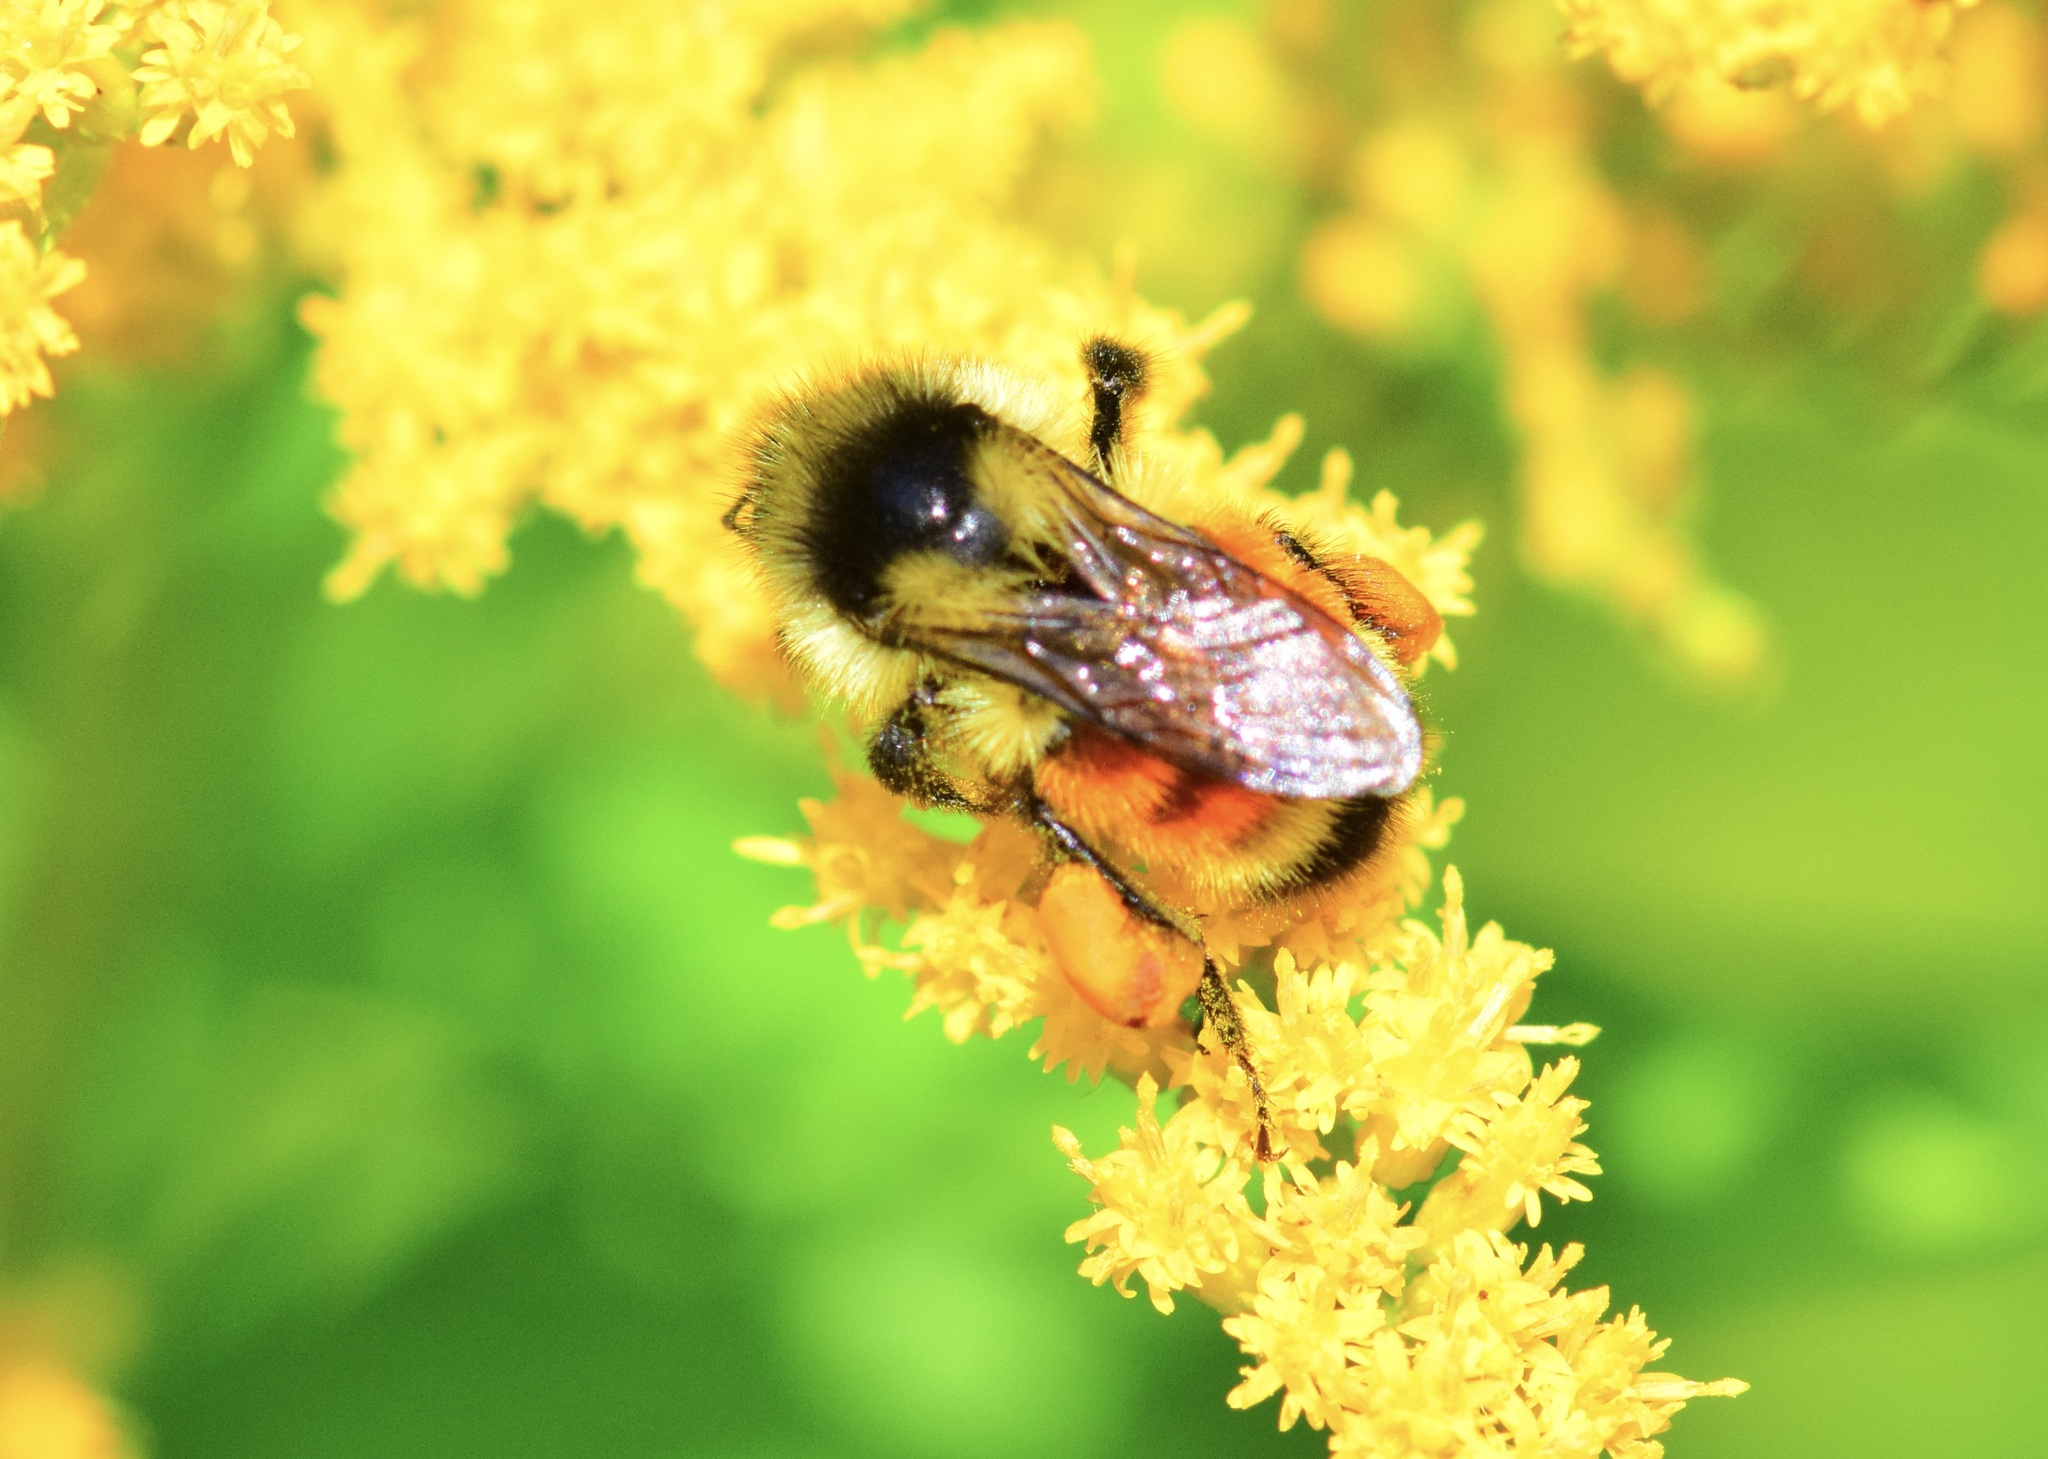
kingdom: Animalia
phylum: Arthropoda
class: Insecta
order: Hymenoptera
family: Apidae
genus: Bombus
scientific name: Bombus ternarius
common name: Tri-colored bumble bee
